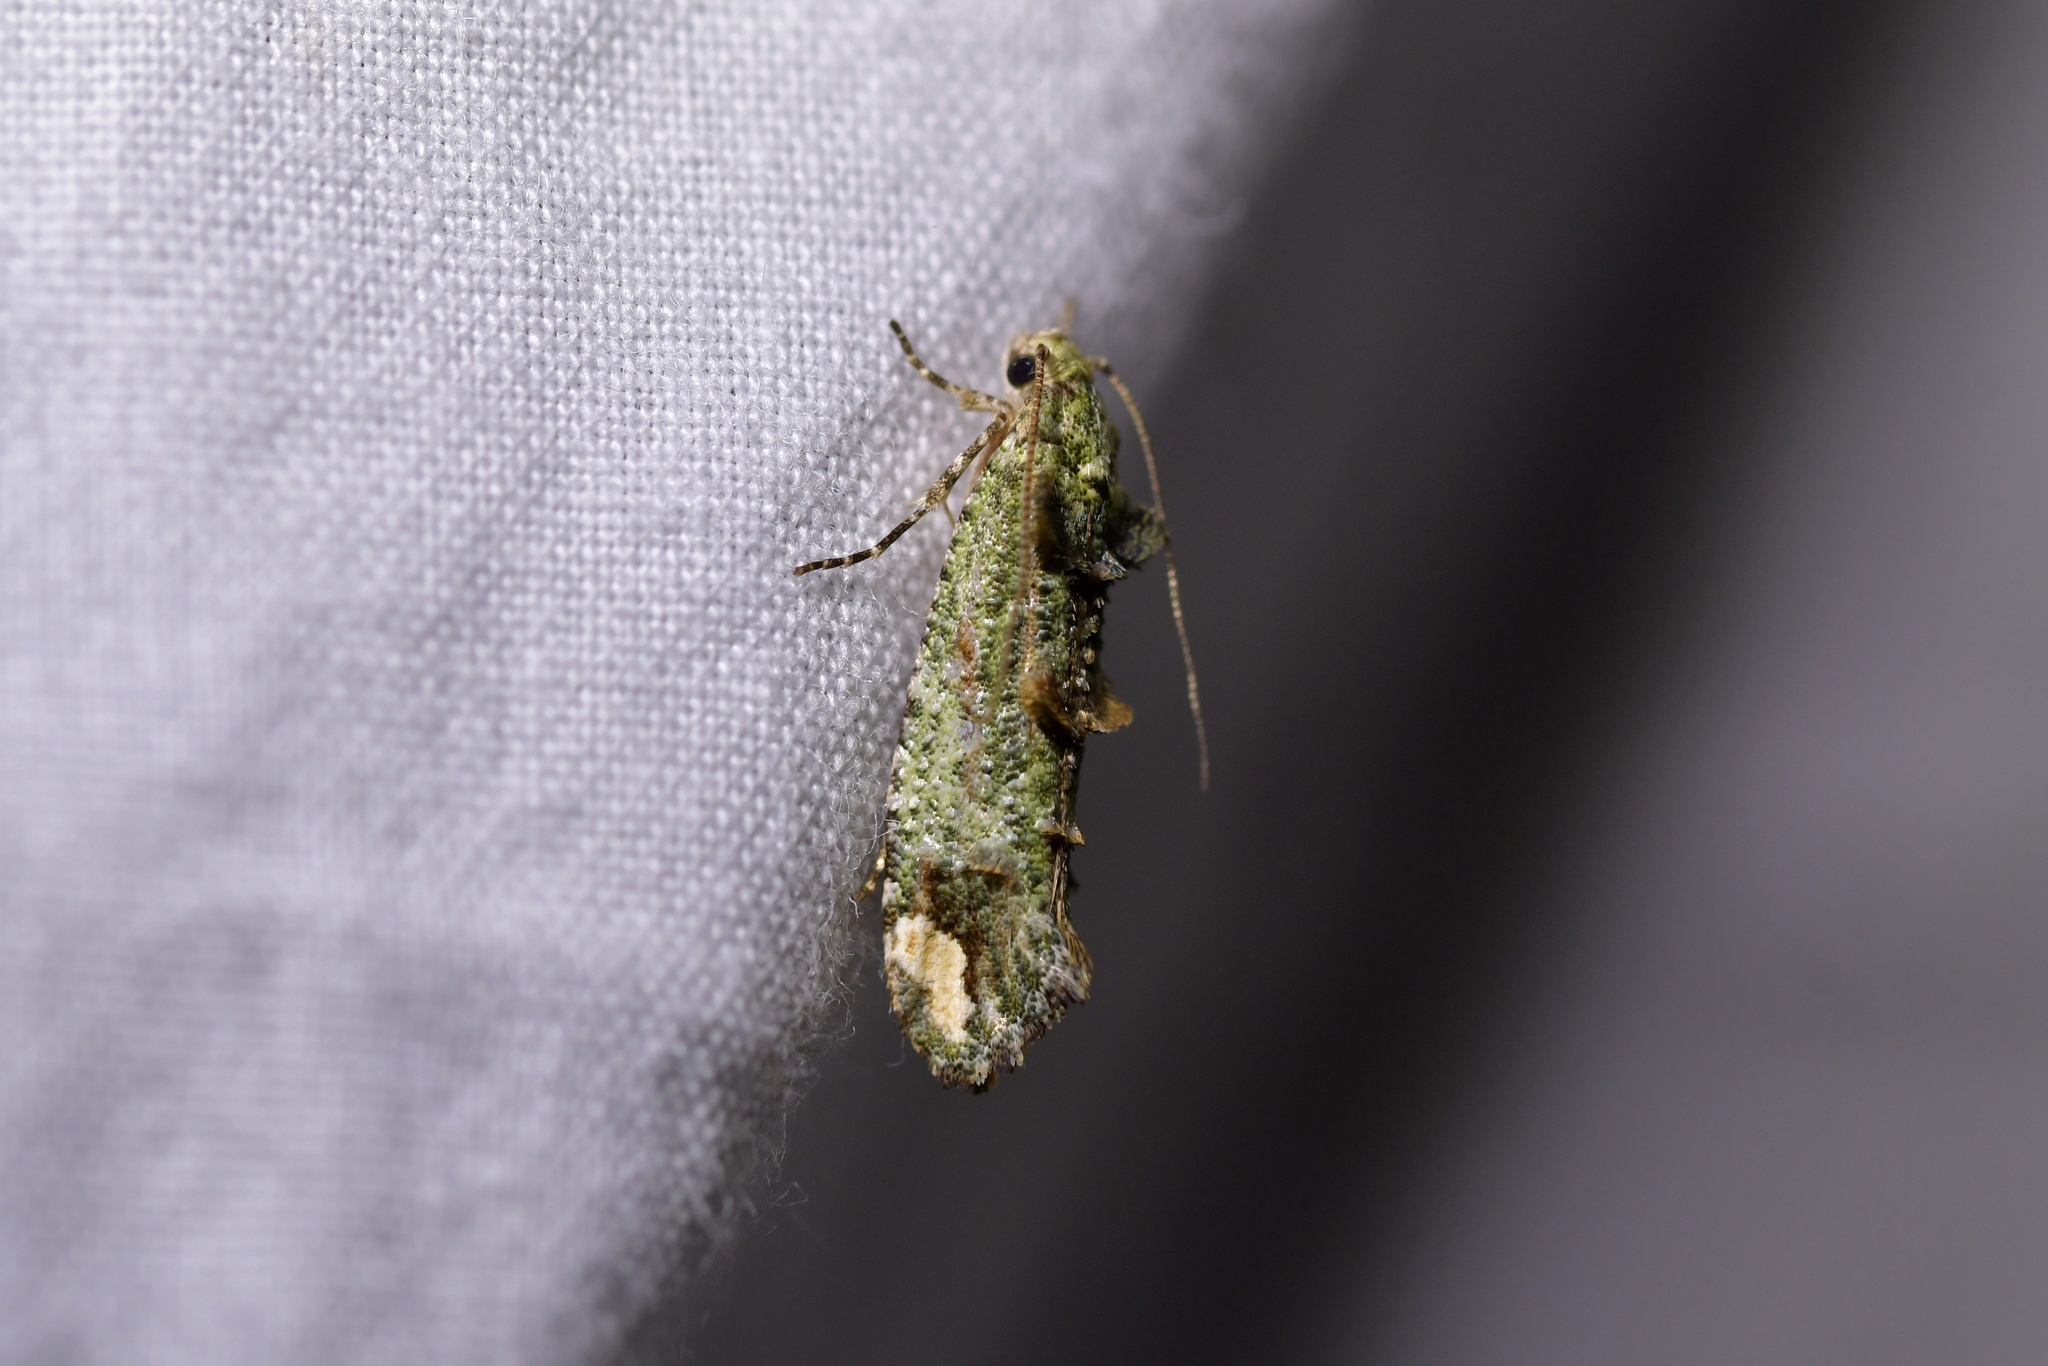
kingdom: Animalia
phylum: Arthropoda
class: Insecta
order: Lepidoptera
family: Tineidae
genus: Lysiphragma
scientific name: Lysiphragma mixochlora
